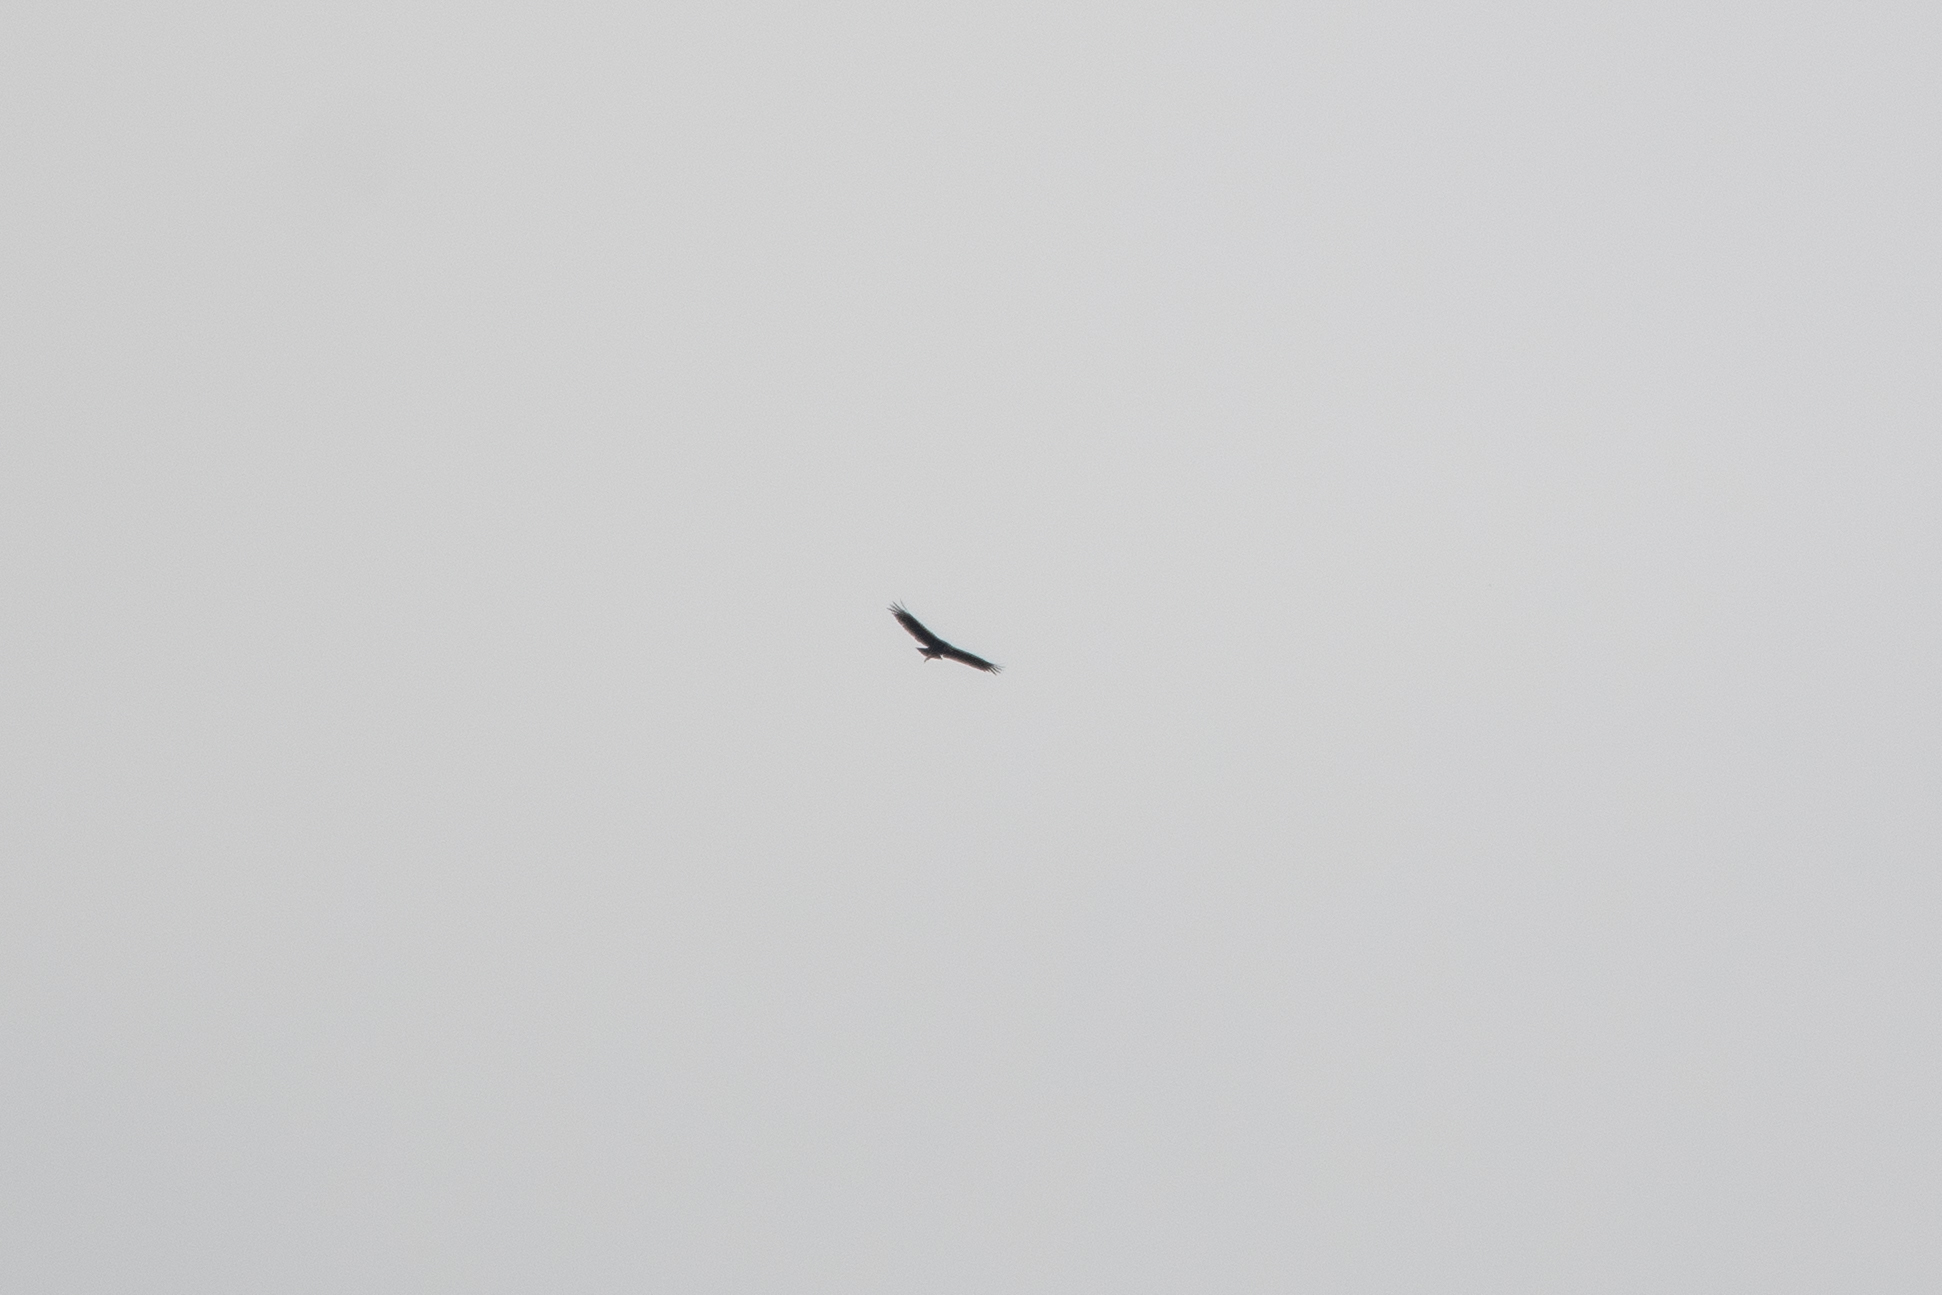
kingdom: Animalia
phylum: Chordata
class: Aves
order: Accipitriformes
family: Cathartidae
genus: Coragyps
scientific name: Coragyps atratus
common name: Black vulture
